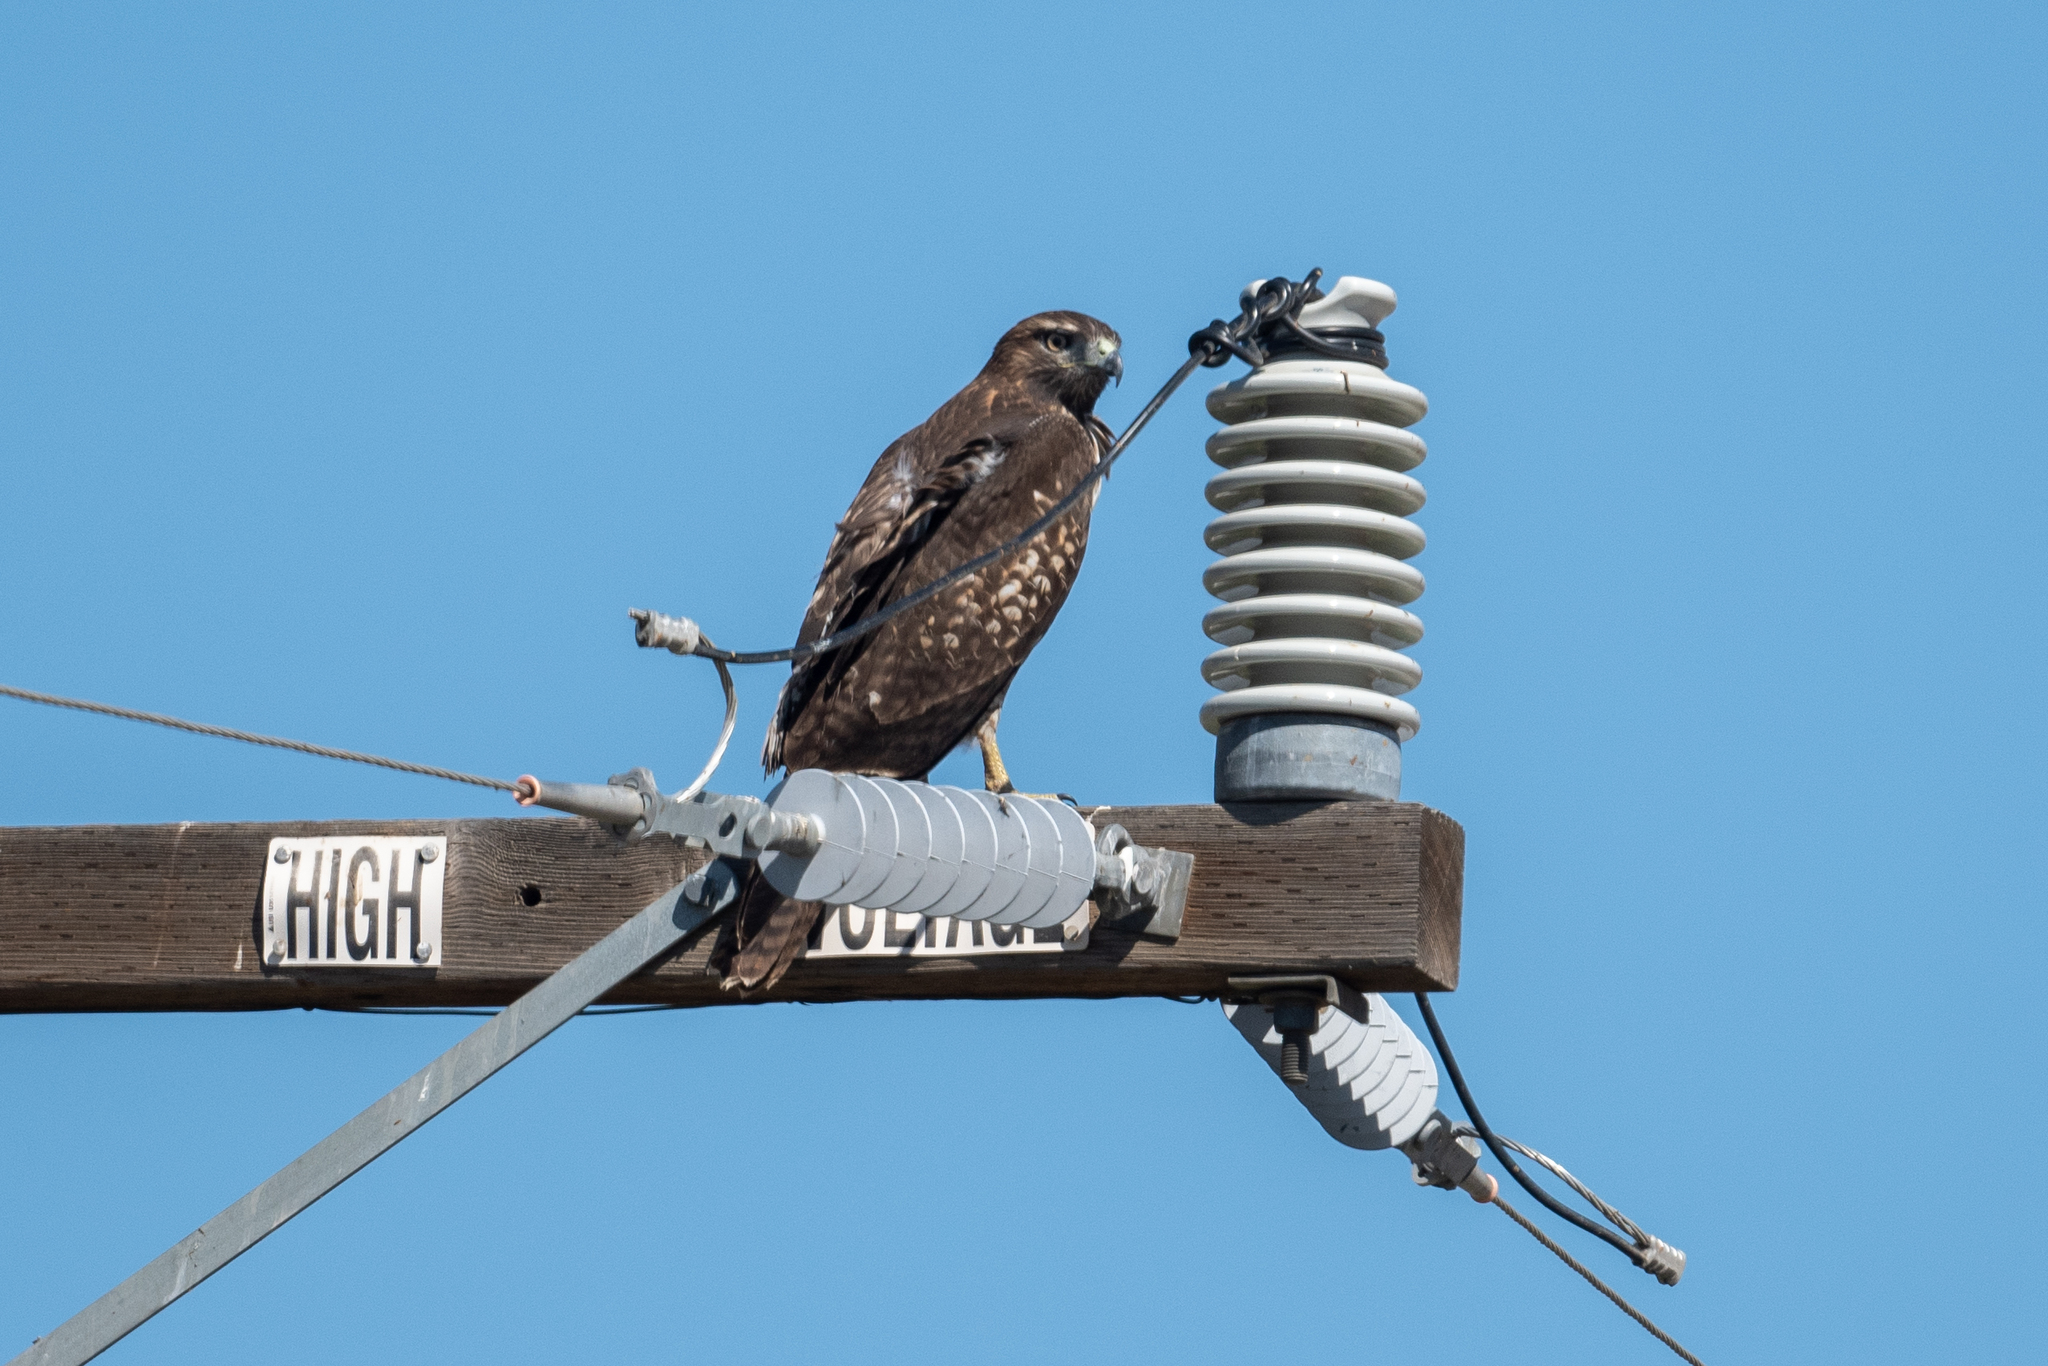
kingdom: Animalia
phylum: Chordata
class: Aves
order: Accipitriformes
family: Accipitridae
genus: Buteo
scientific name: Buteo jamaicensis
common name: Red-tailed hawk
